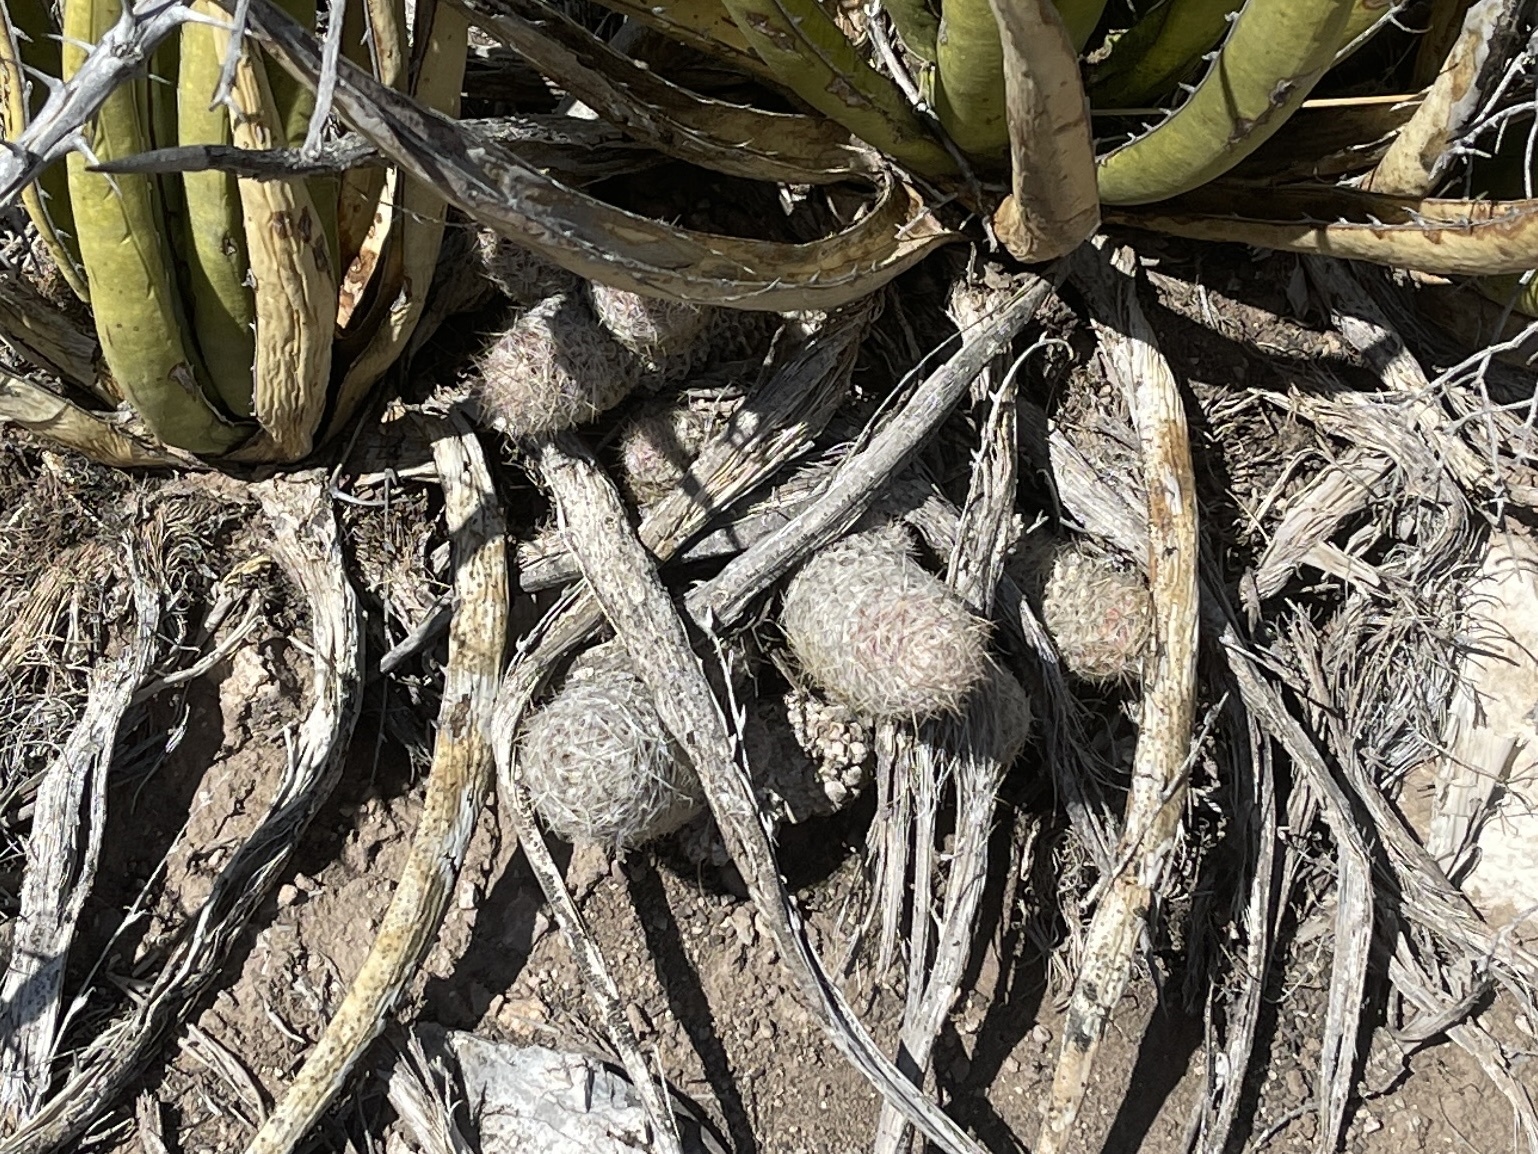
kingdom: Plantae
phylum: Tracheophyta
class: Magnoliopsida
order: Caryophyllales
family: Cactaceae
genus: Pelecyphora
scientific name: Pelecyphora tuberculosa
